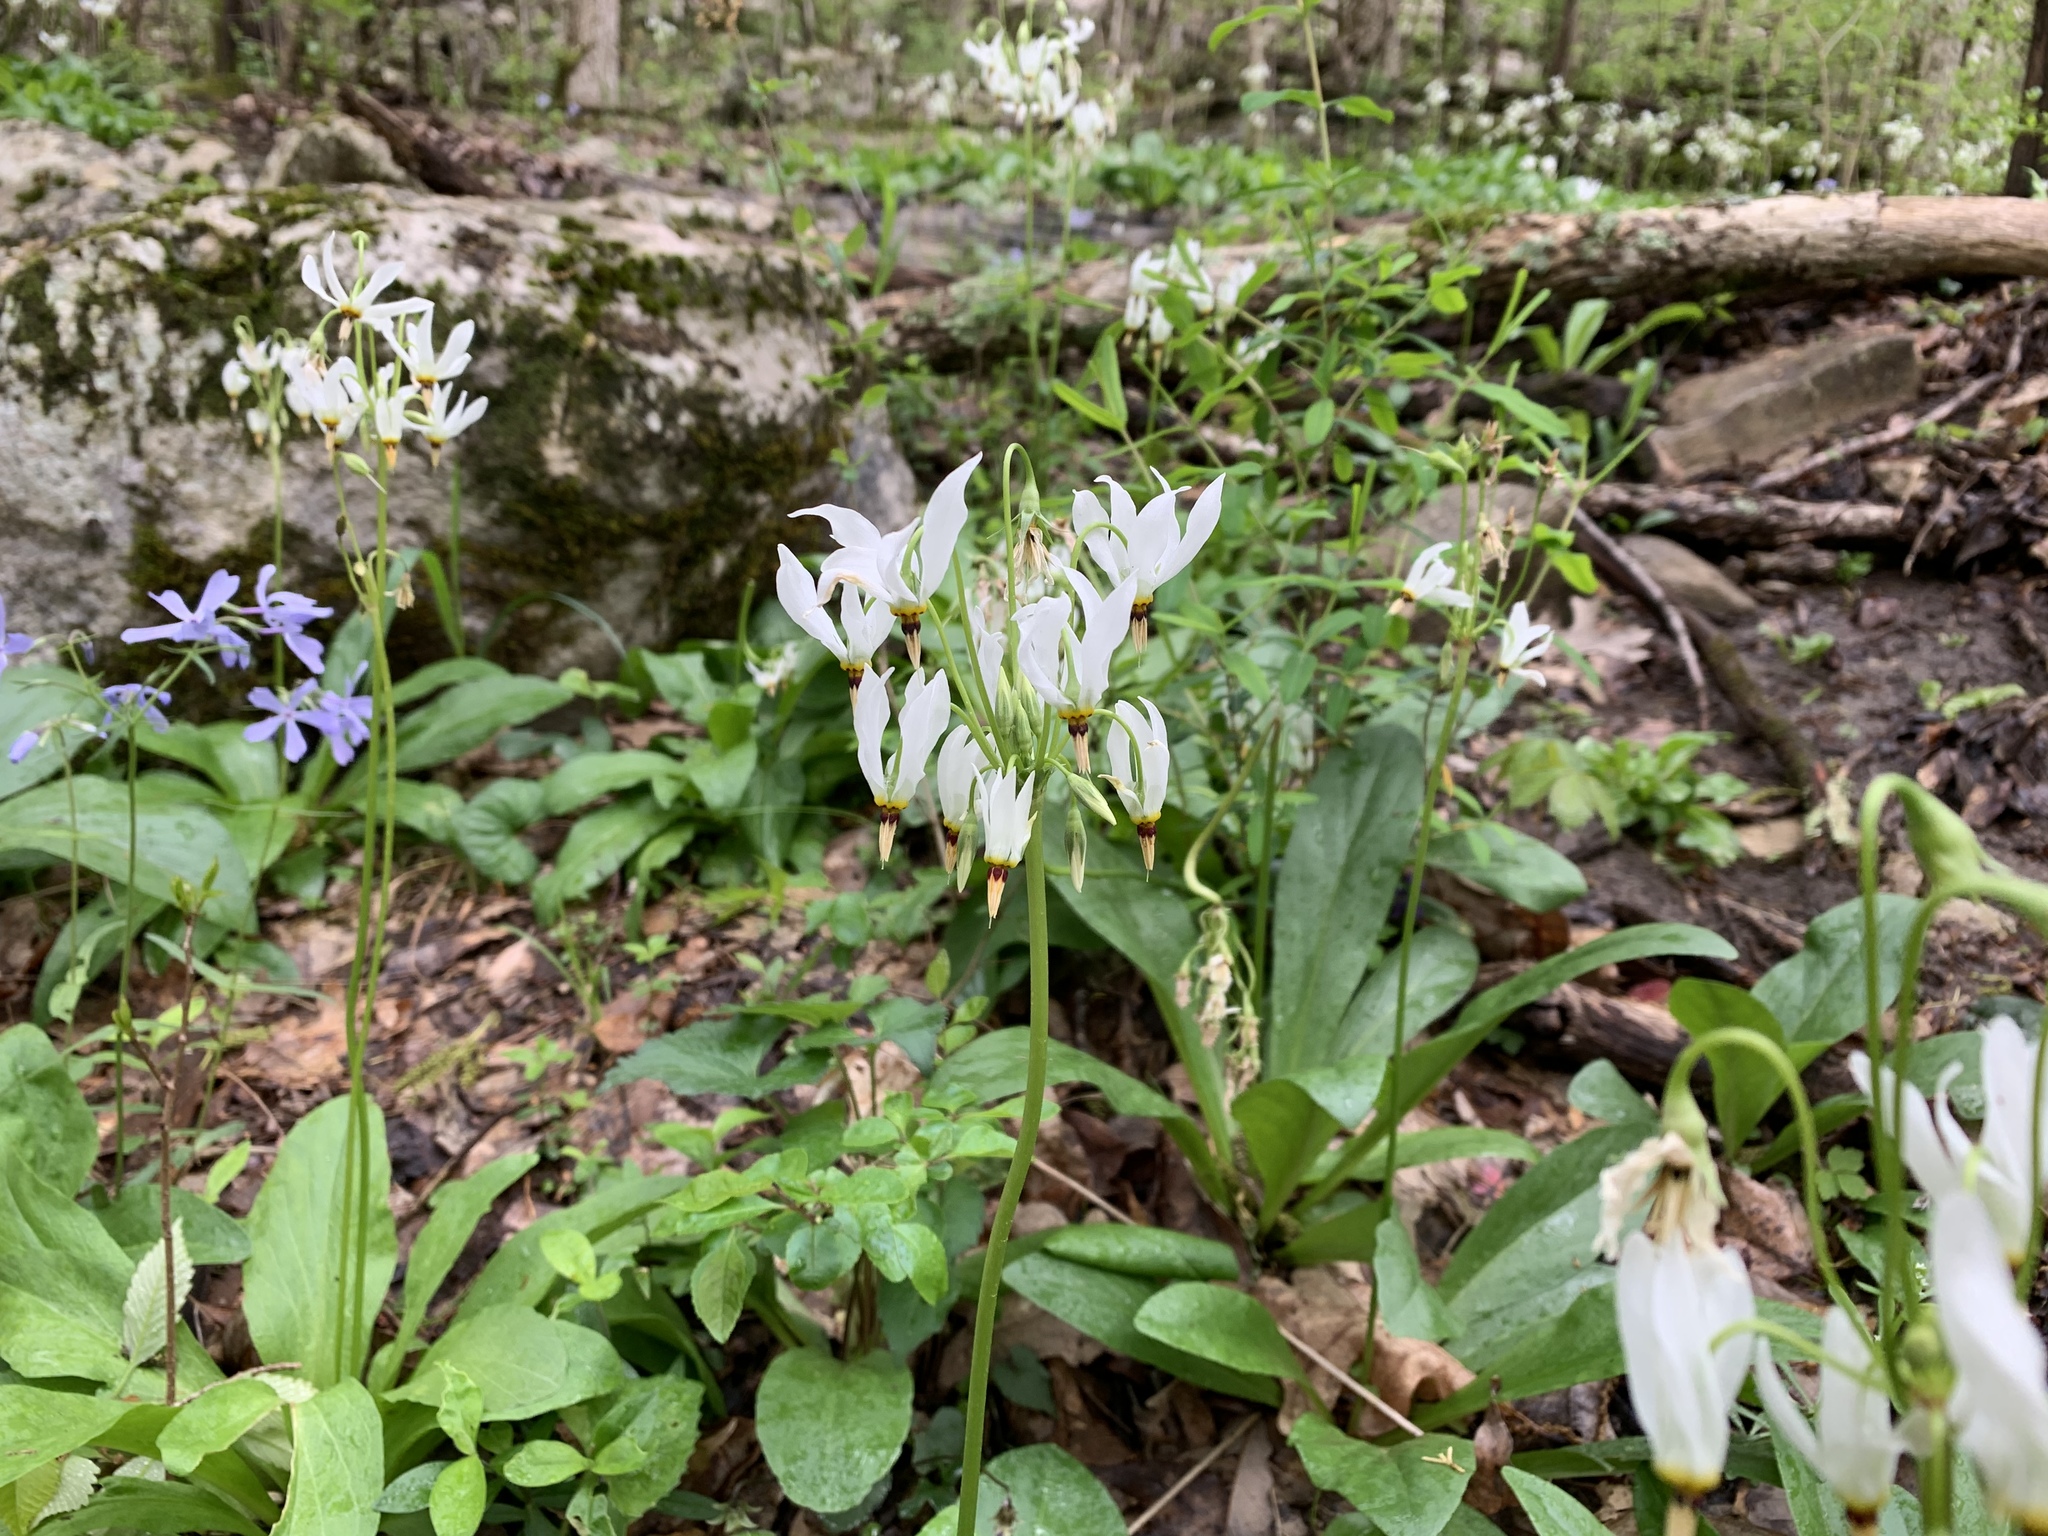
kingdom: Plantae
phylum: Tracheophyta
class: Magnoliopsida
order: Ericales
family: Primulaceae
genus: Dodecatheon
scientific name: Dodecatheon meadia
